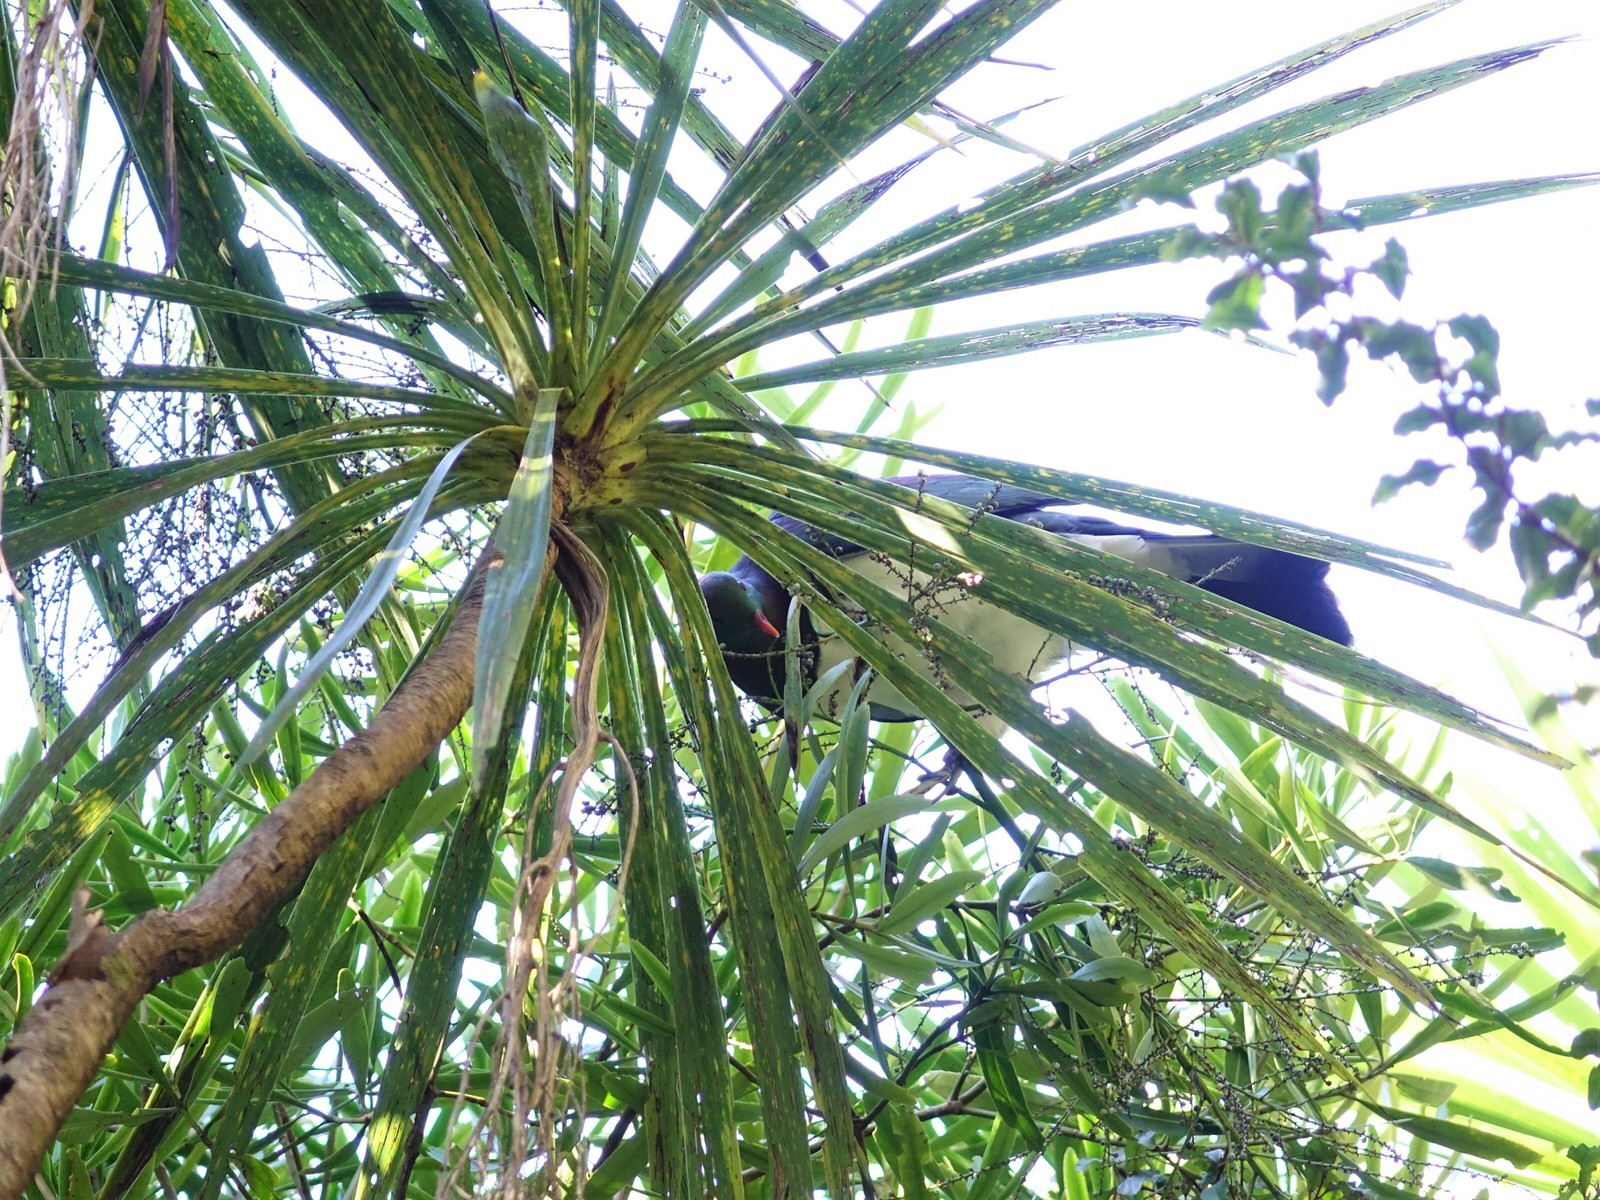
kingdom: Animalia
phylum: Chordata
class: Aves
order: Columbiformes
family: Columbidae
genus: Hemiphaga
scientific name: Hemiphaga novaeseelandiae
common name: New zealand pigeon
